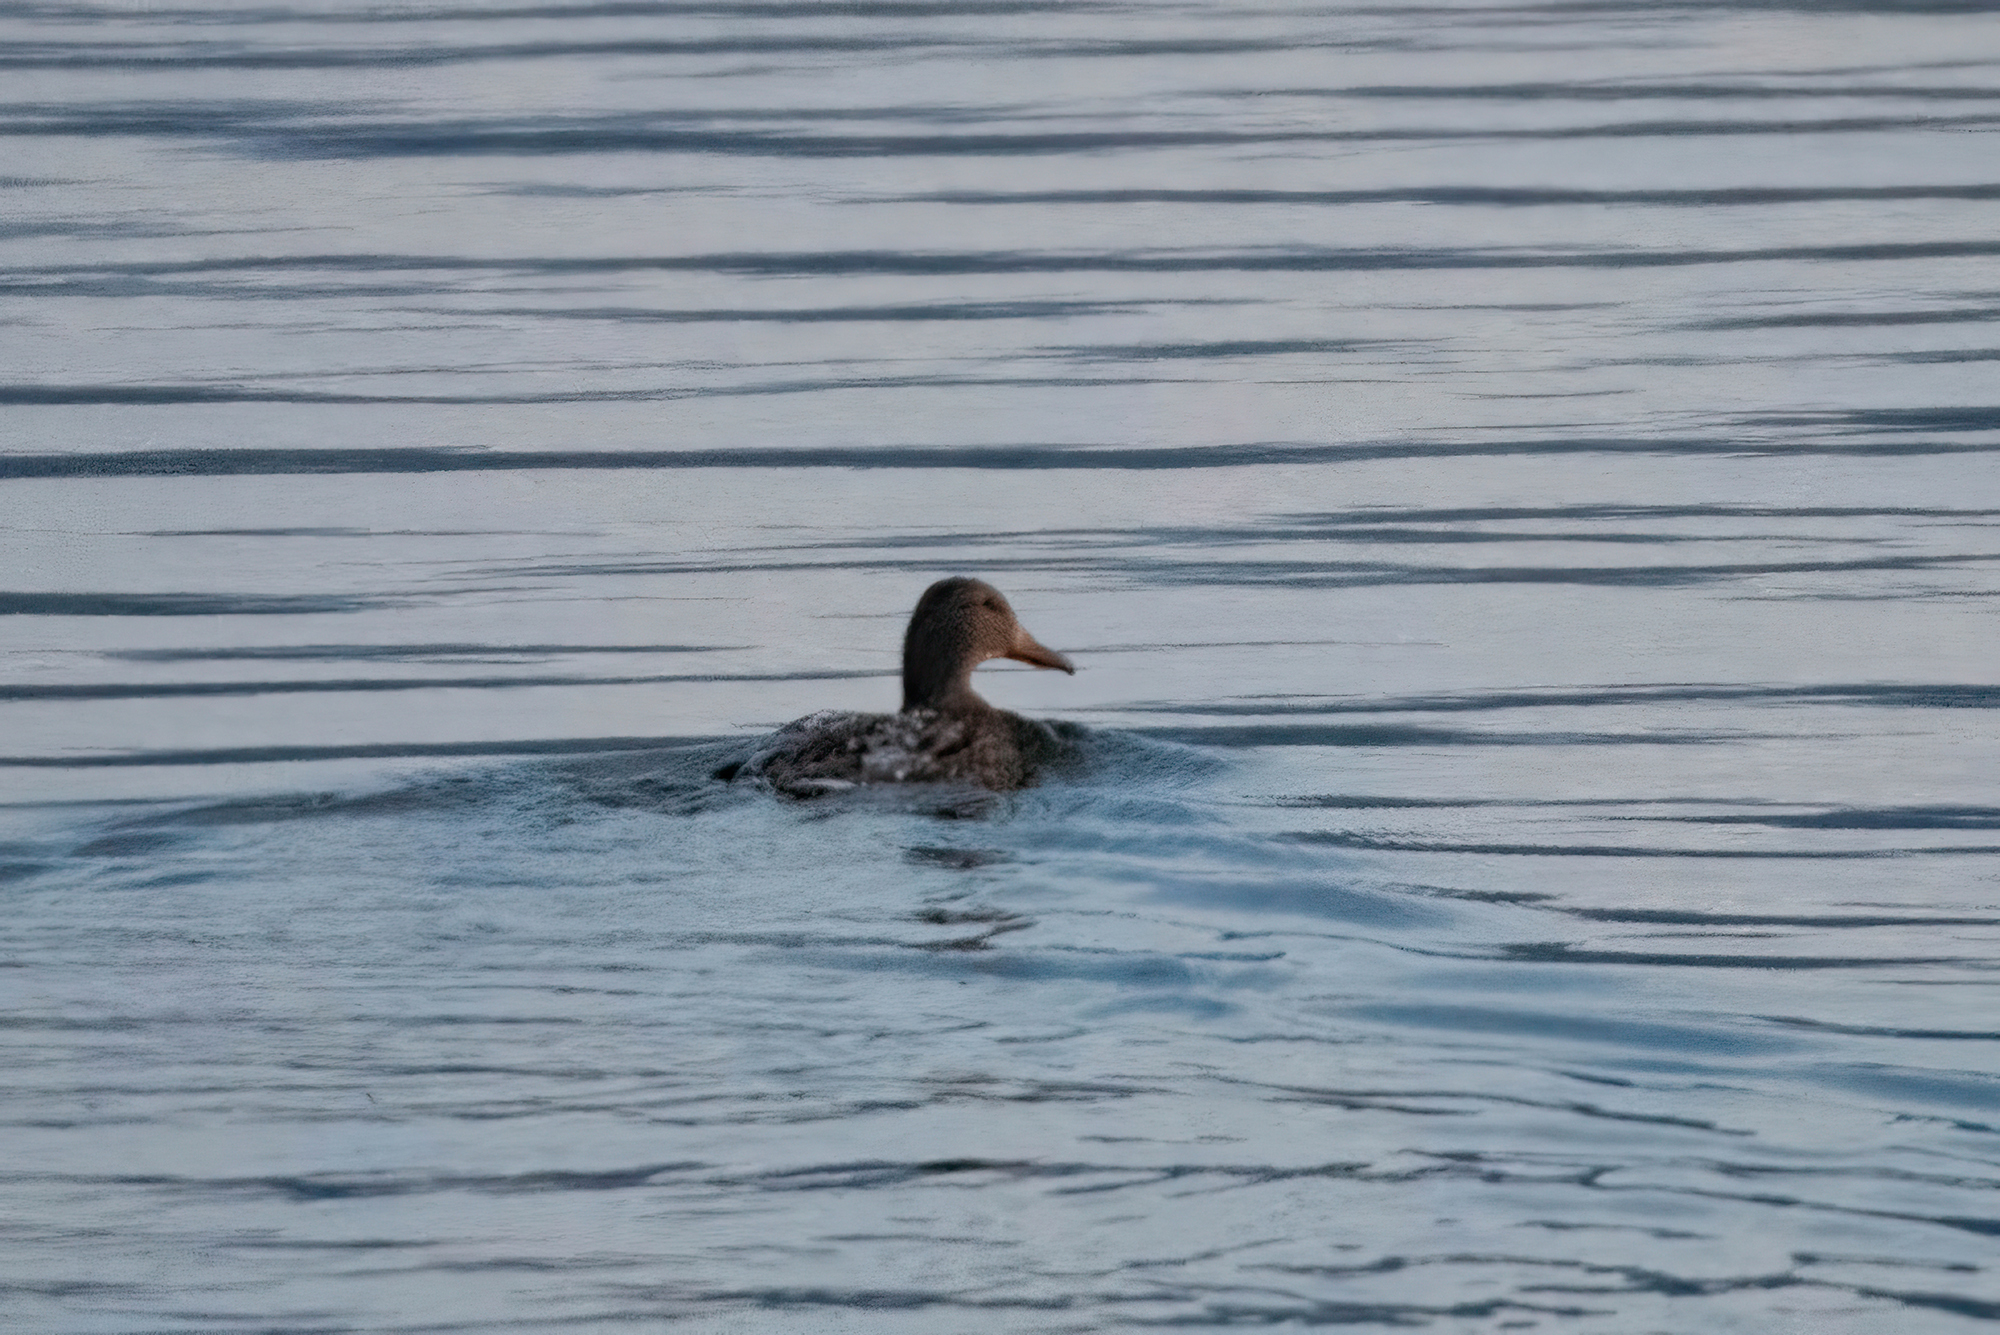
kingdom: Animalia
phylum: Chordata
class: Aves
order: Anseriformes
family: Anatidae
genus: Spatula
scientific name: Spatula clypeata
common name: Northern shoveler
